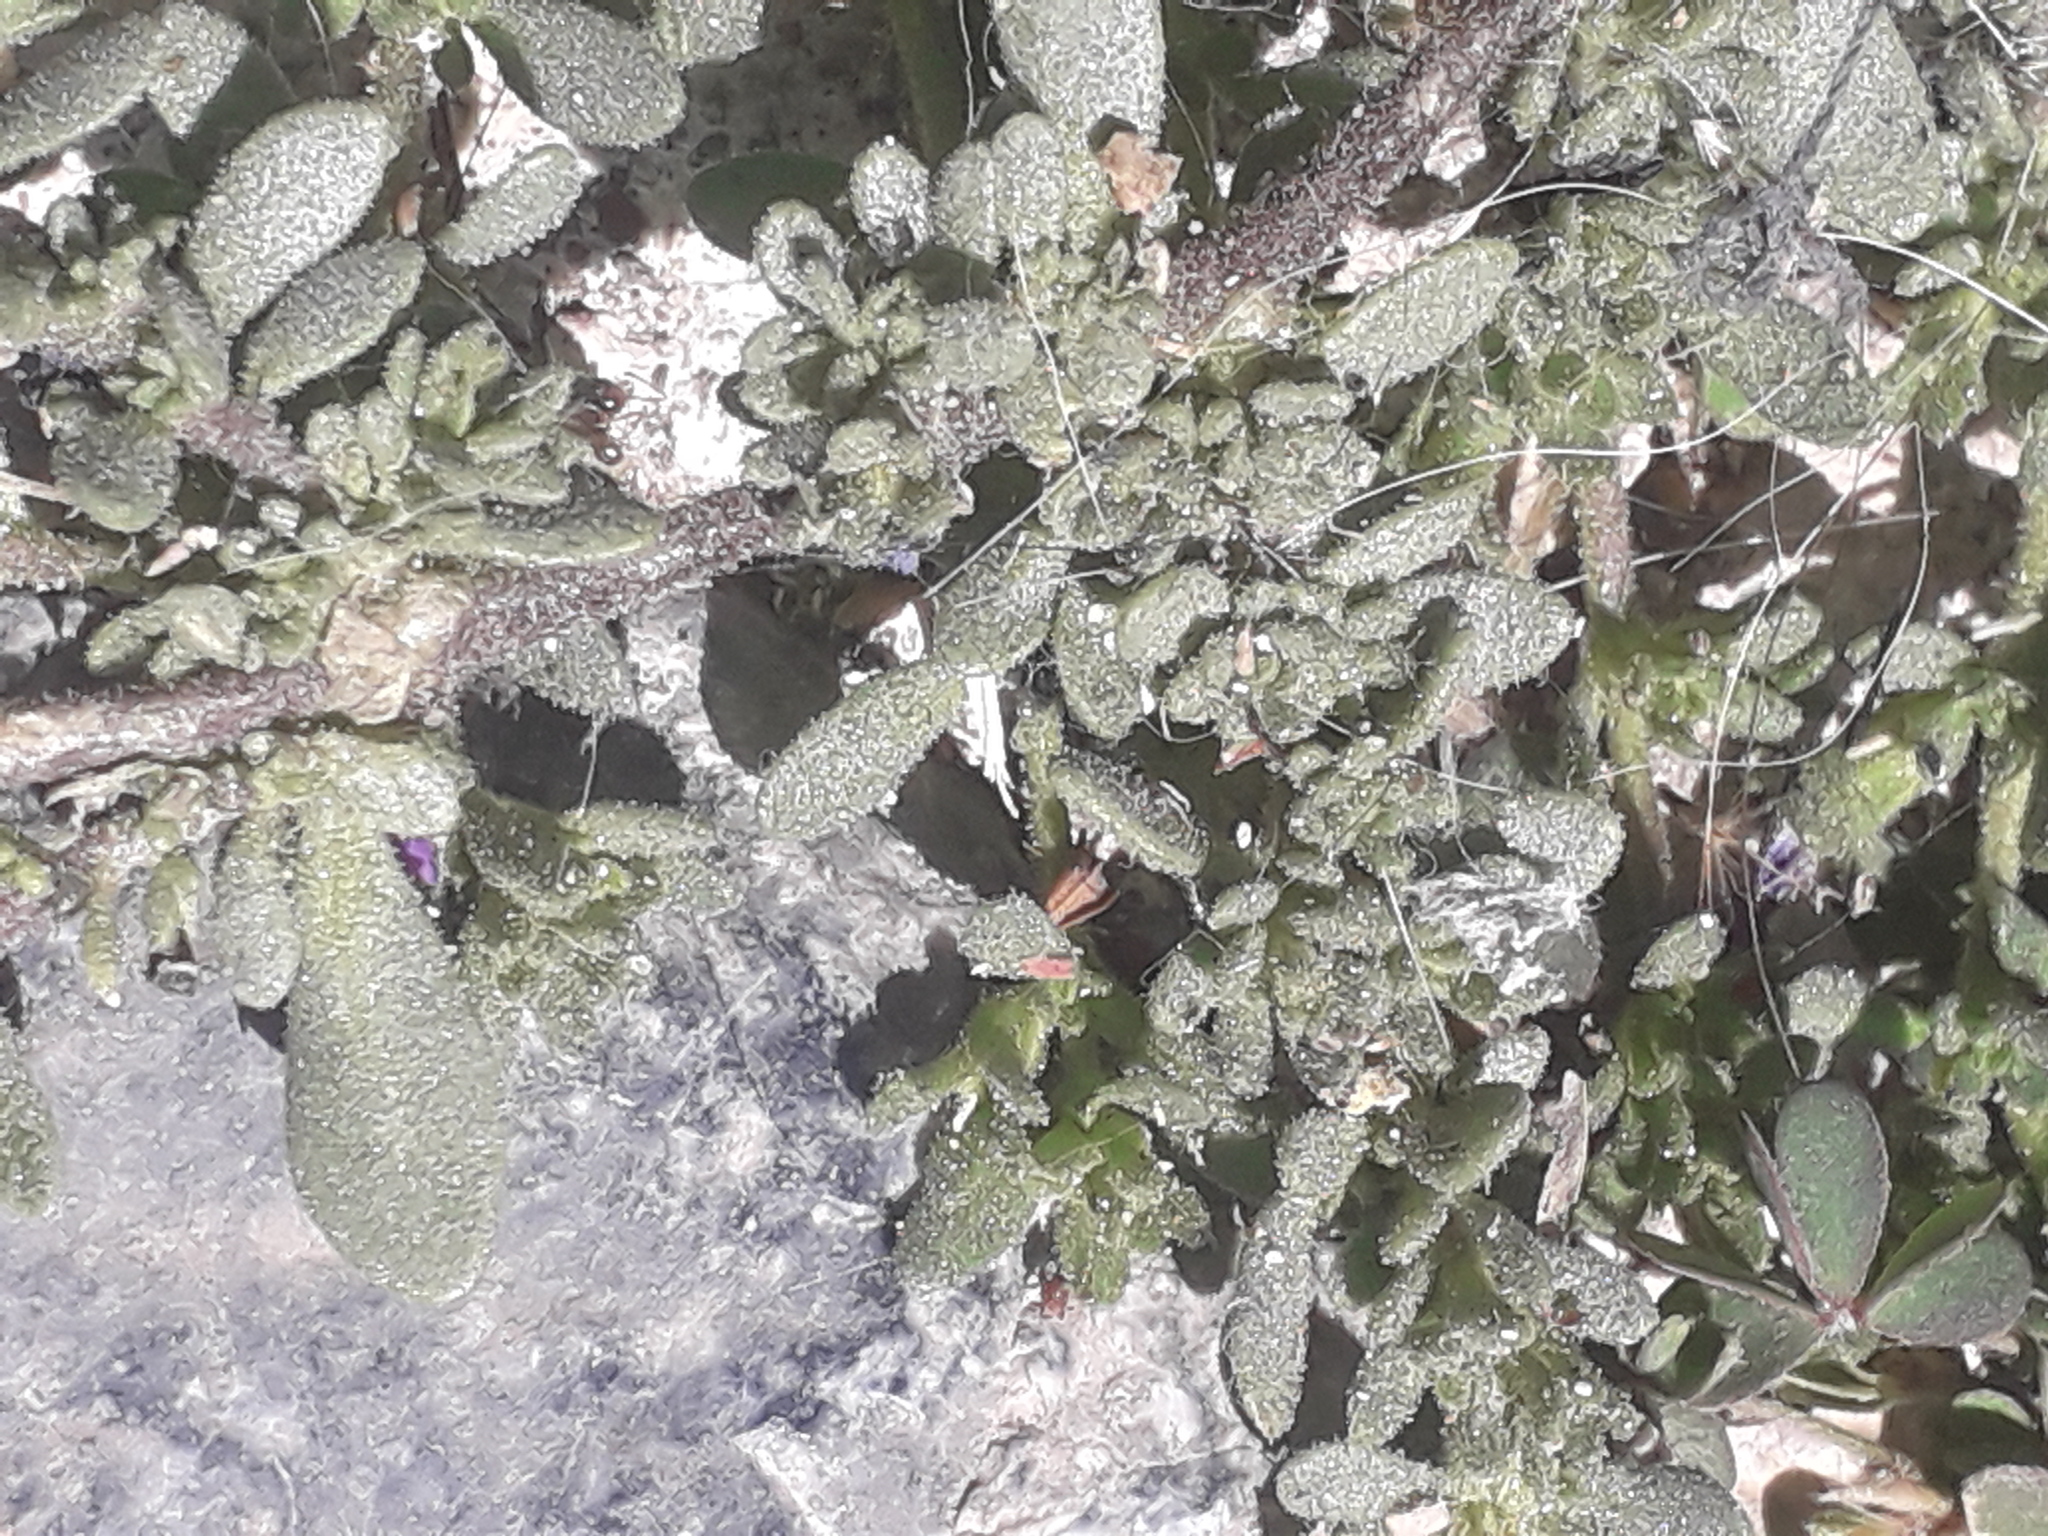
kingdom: Plantae
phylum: Tracheophyta
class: Magnoliopsida
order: Solanales
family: Solanaceae
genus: Calibrachoa
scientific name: Calibrachoa parviflora
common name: Seaside petunia
